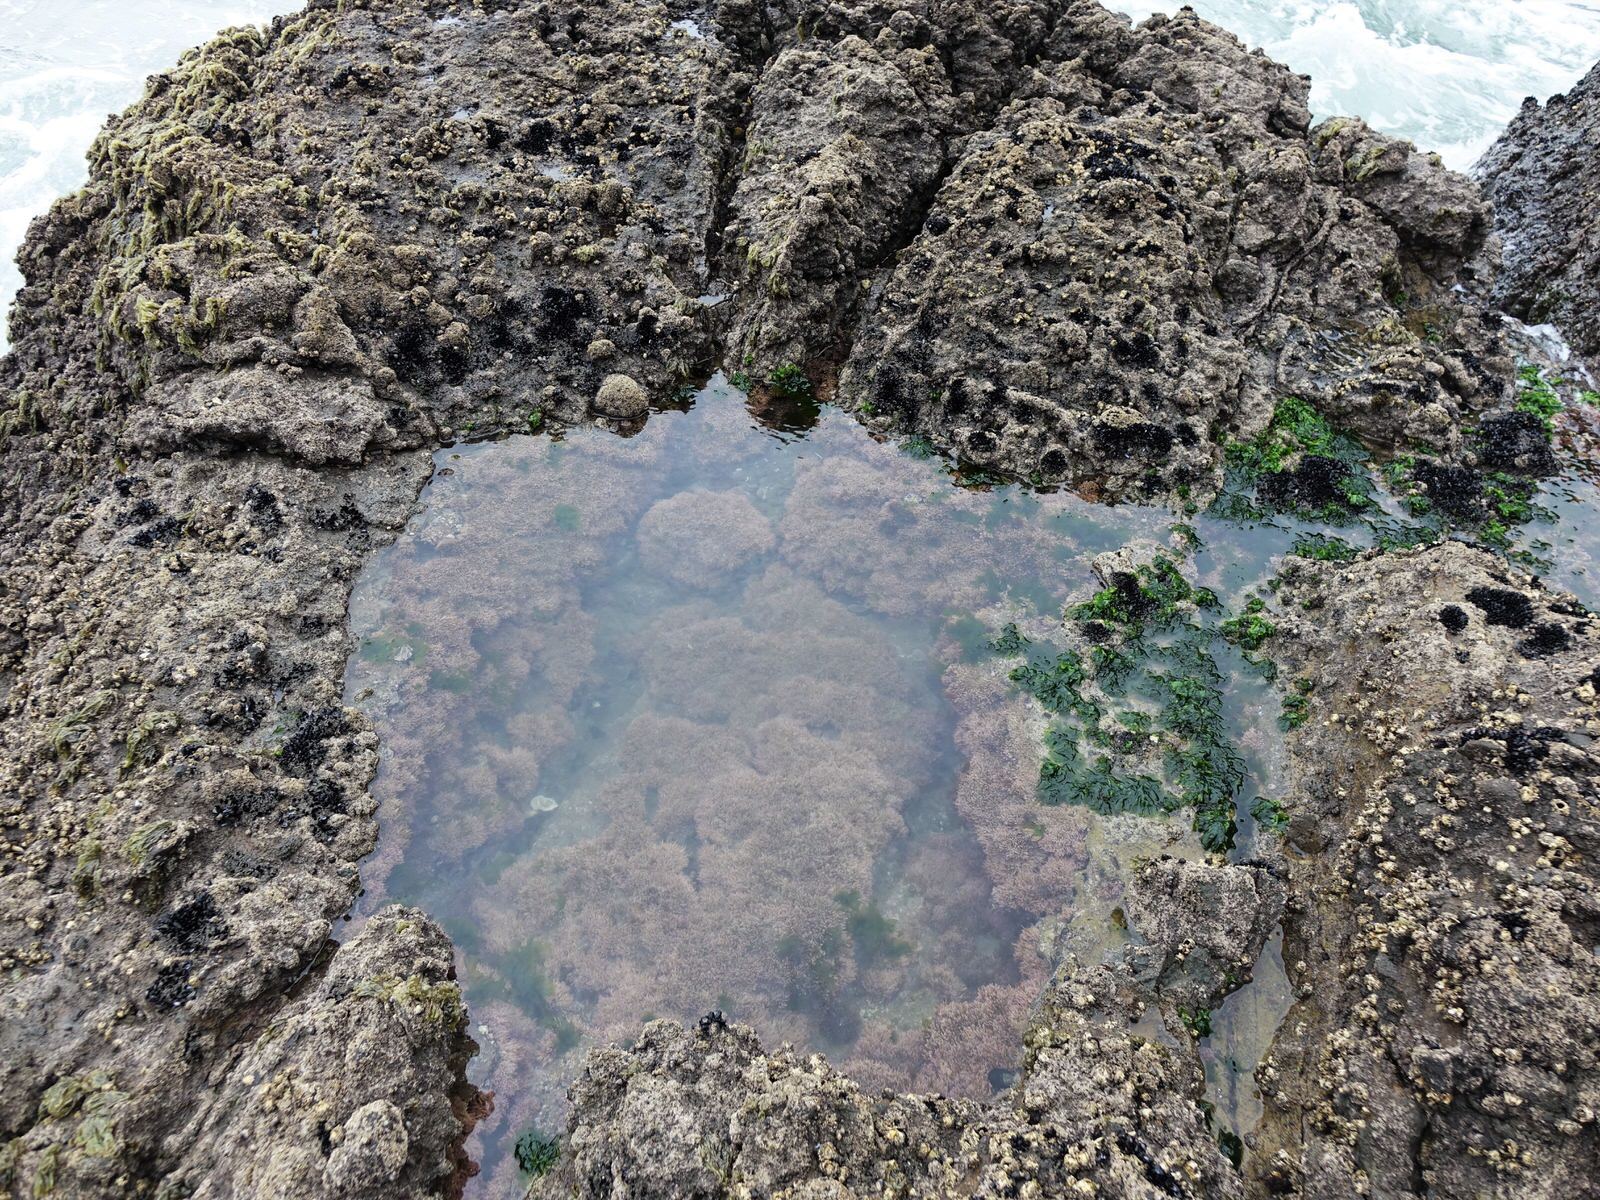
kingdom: Animalia
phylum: Echinodermata
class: Echinoidea
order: Camarodonta
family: Echinometridae
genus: Evechinus
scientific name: Evechinus chloroticus
